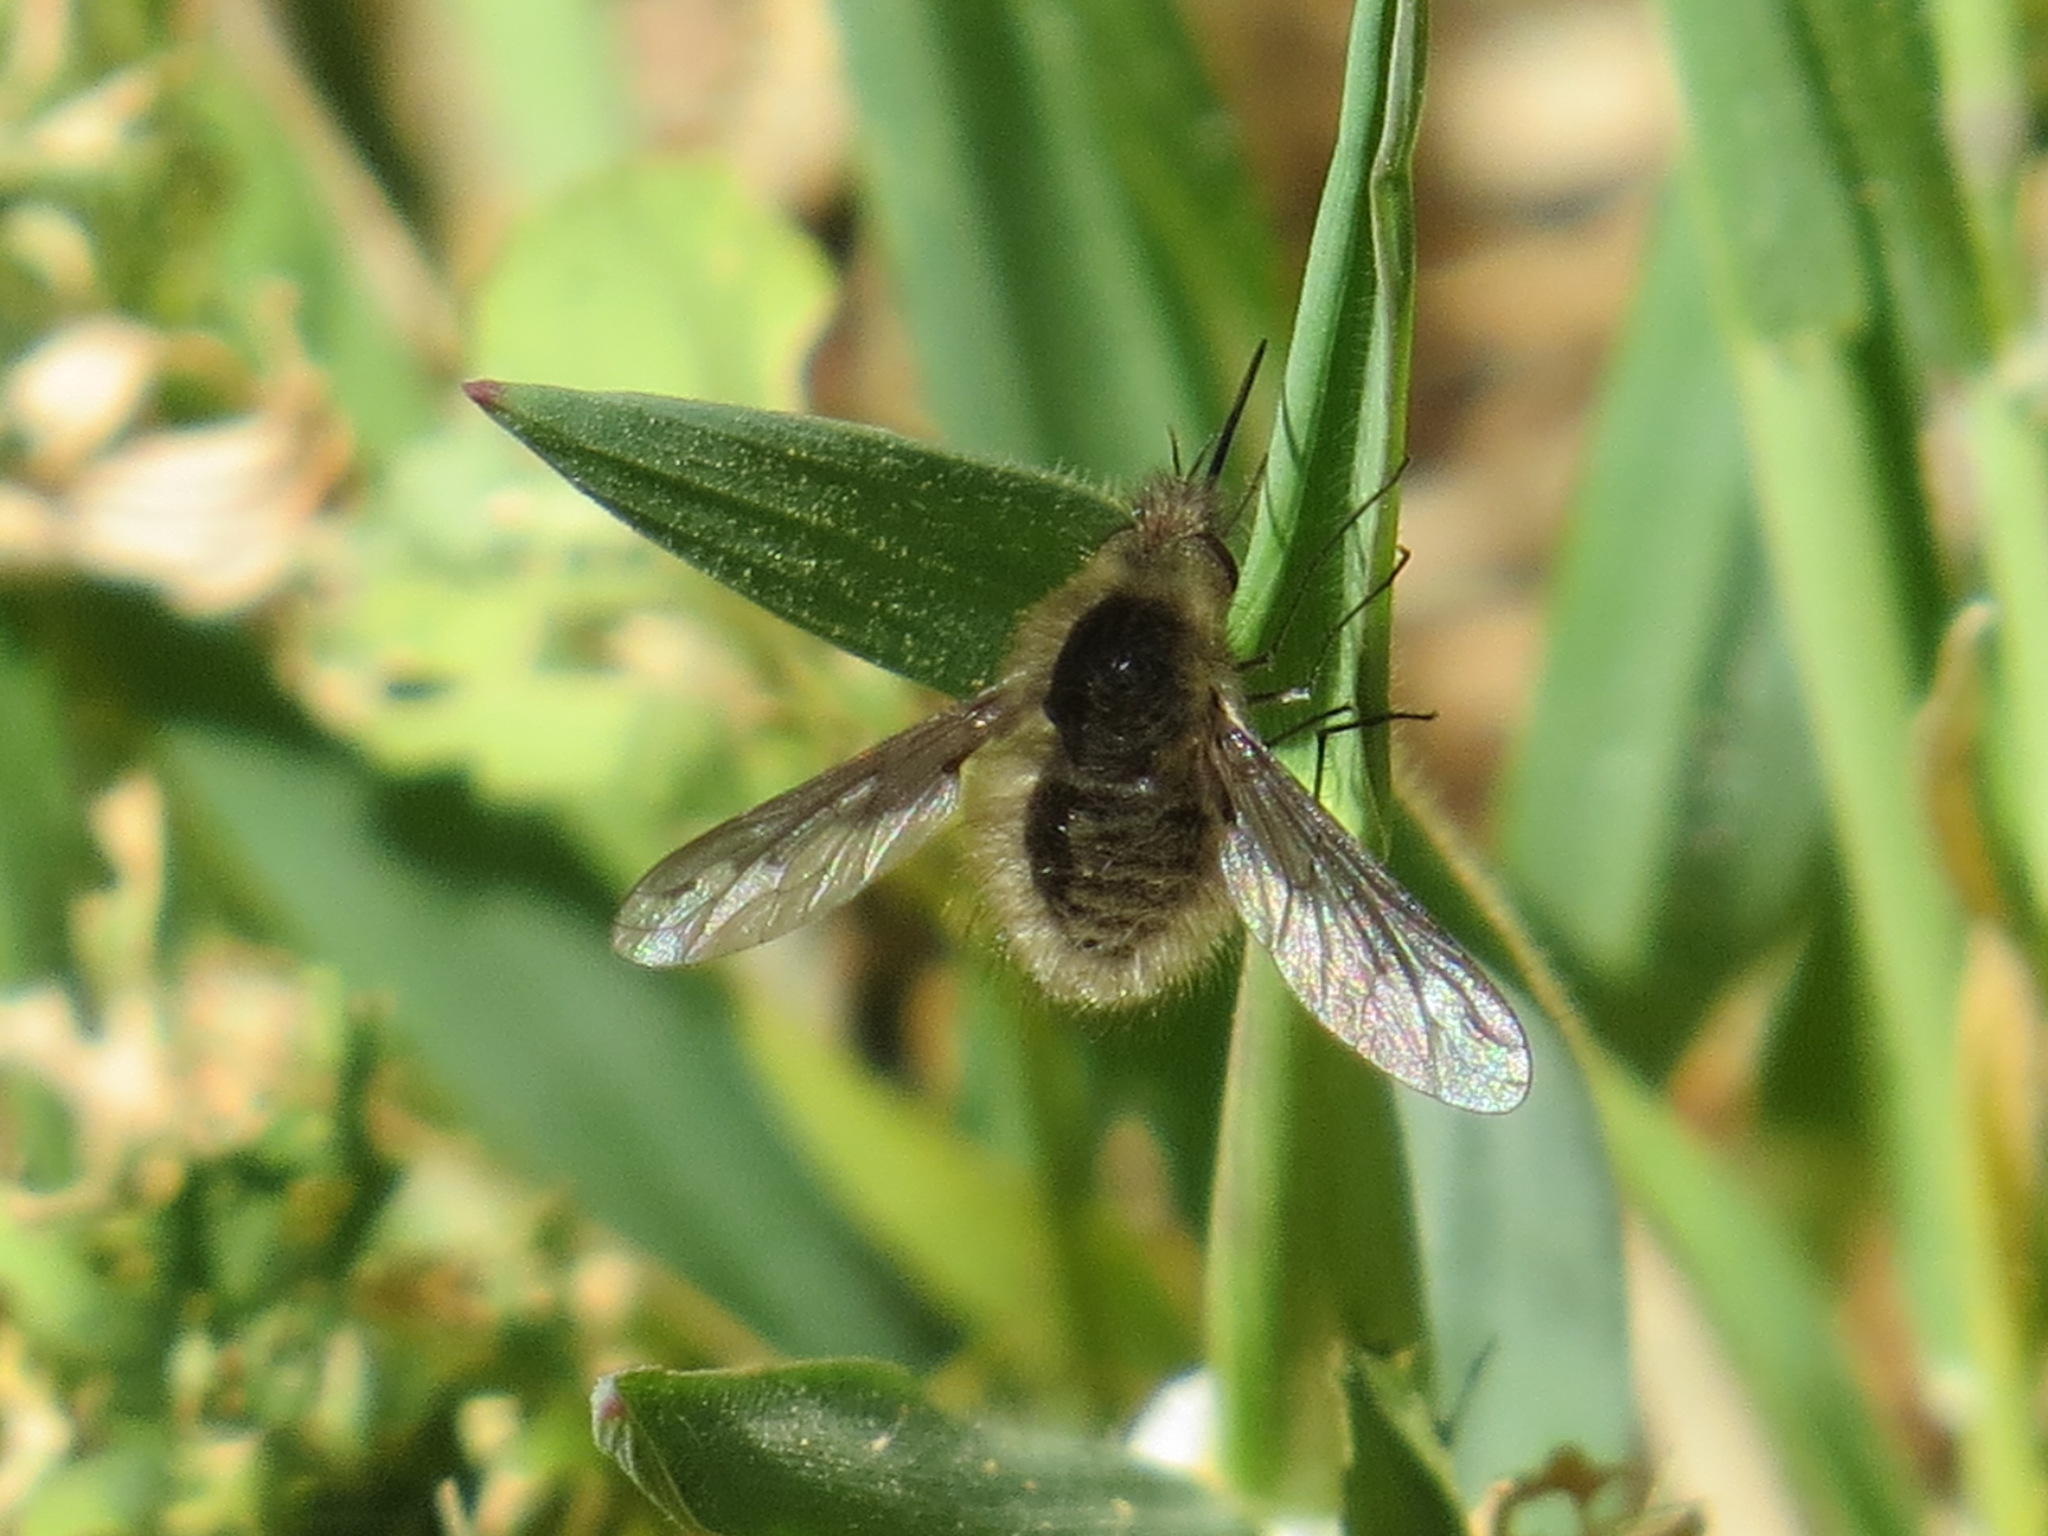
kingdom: Animalia
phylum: Arthropoda
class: Insecta
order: Diptera
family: Bombyliidae
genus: Bombylius
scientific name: Bombylius major
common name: Bee fly
